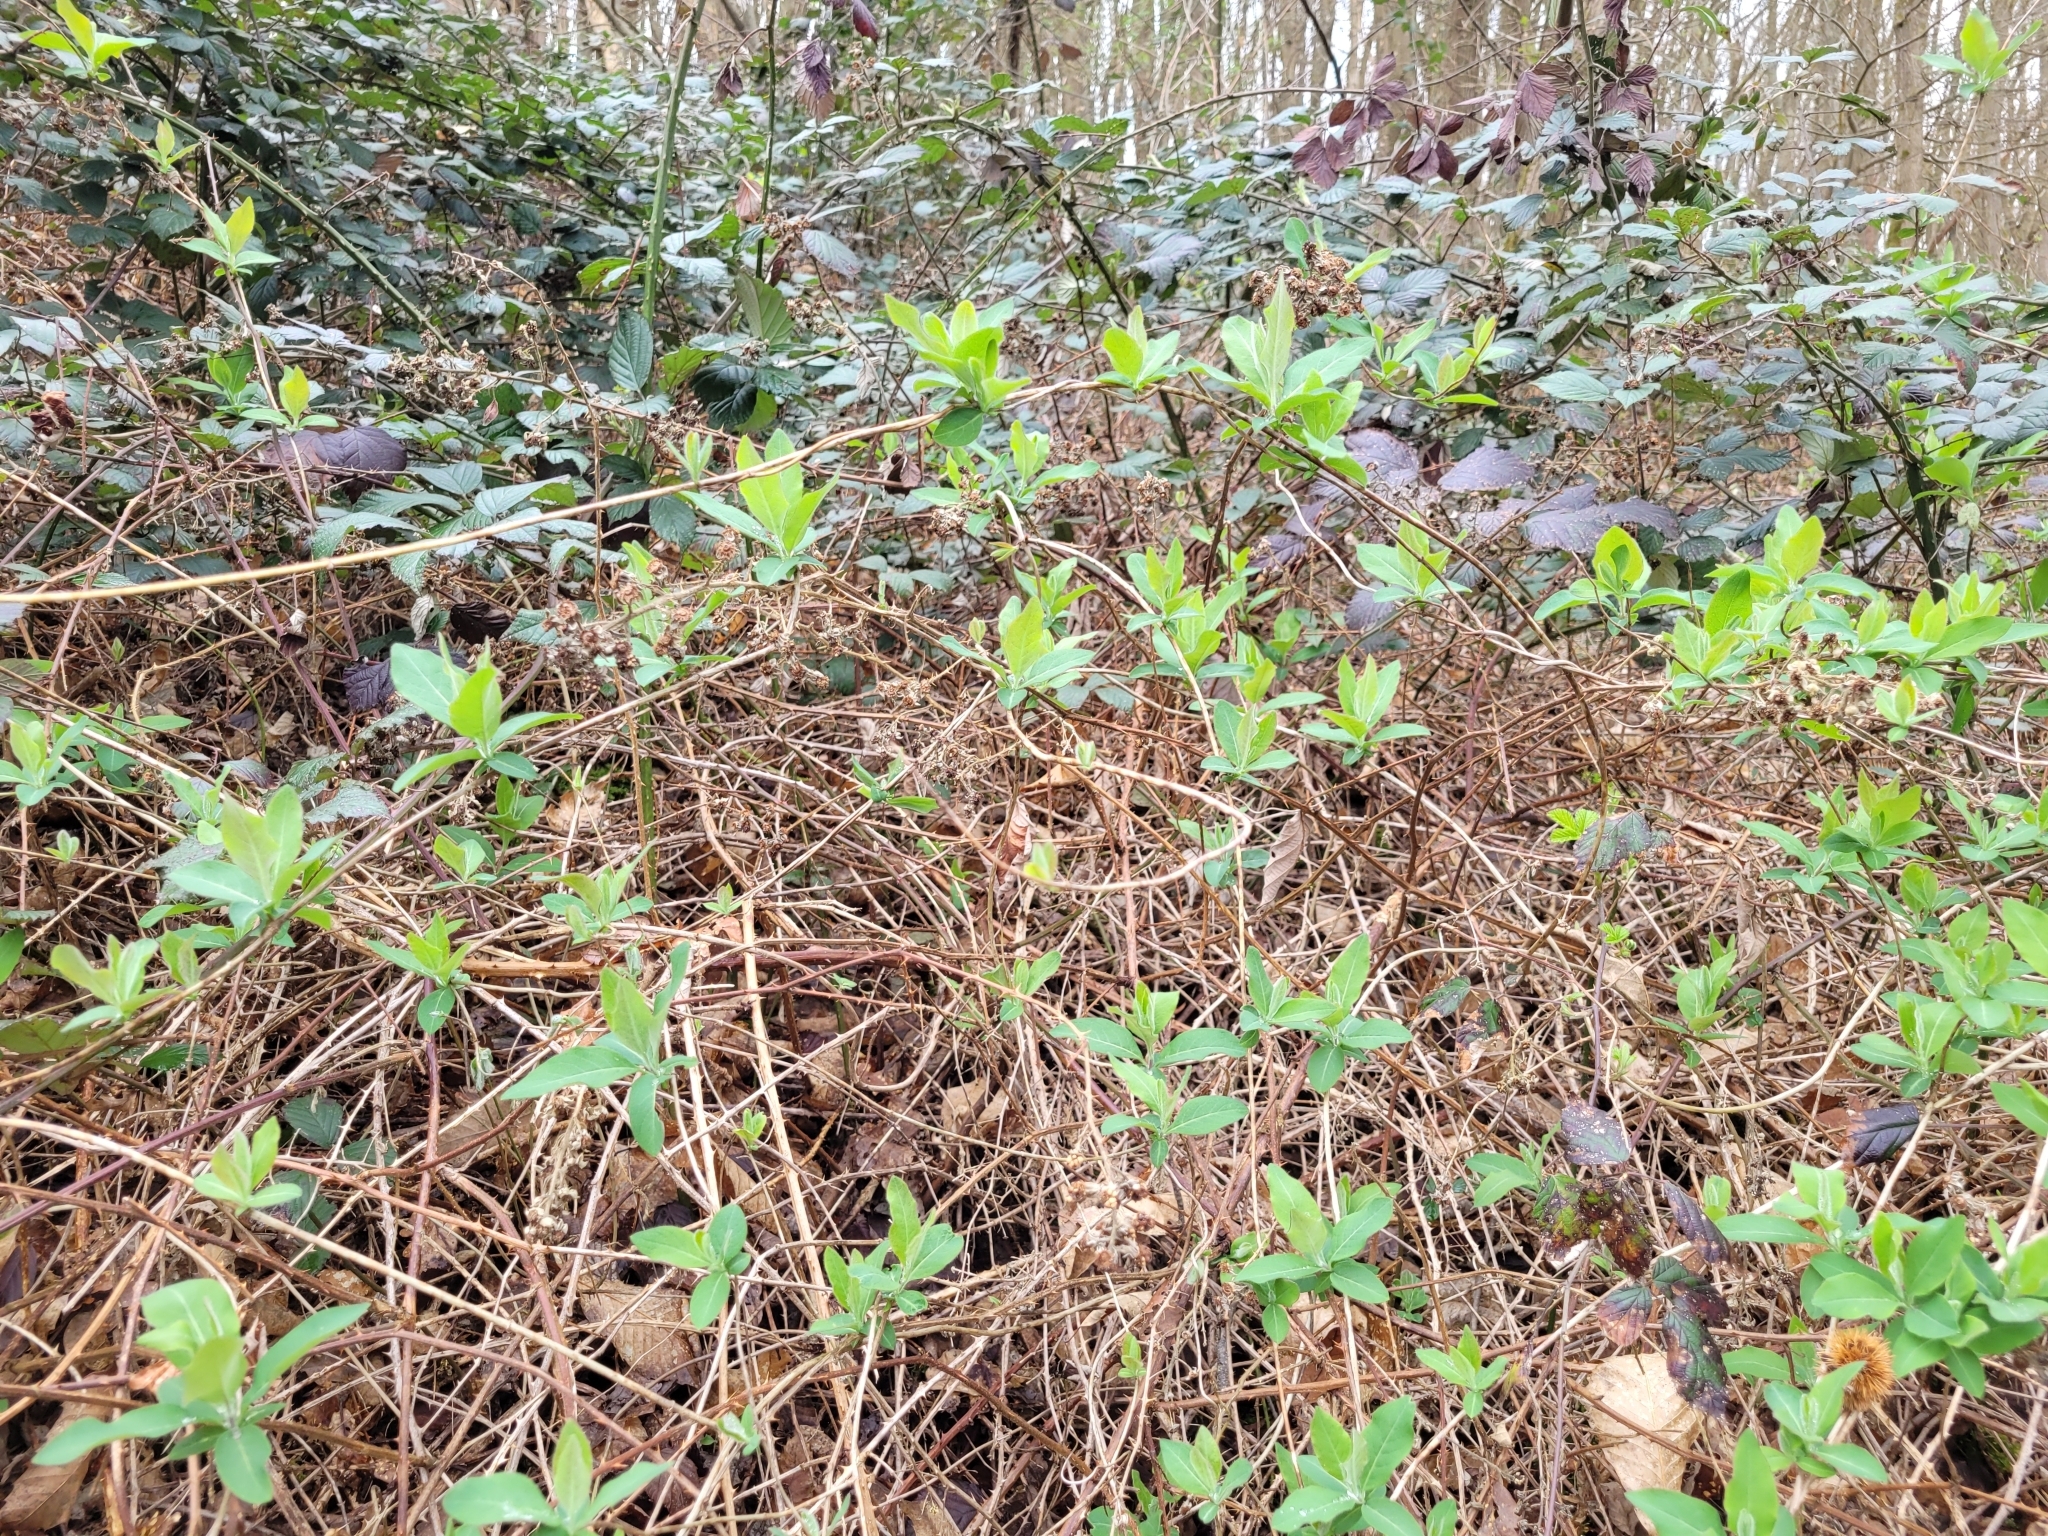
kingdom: Plantae
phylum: Tracheophyta
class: Magnoliopsida
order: Dipsacales
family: Caprifoliaceae
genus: Lonicera
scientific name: Lonicera periclymenum
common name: European honeysuckle
